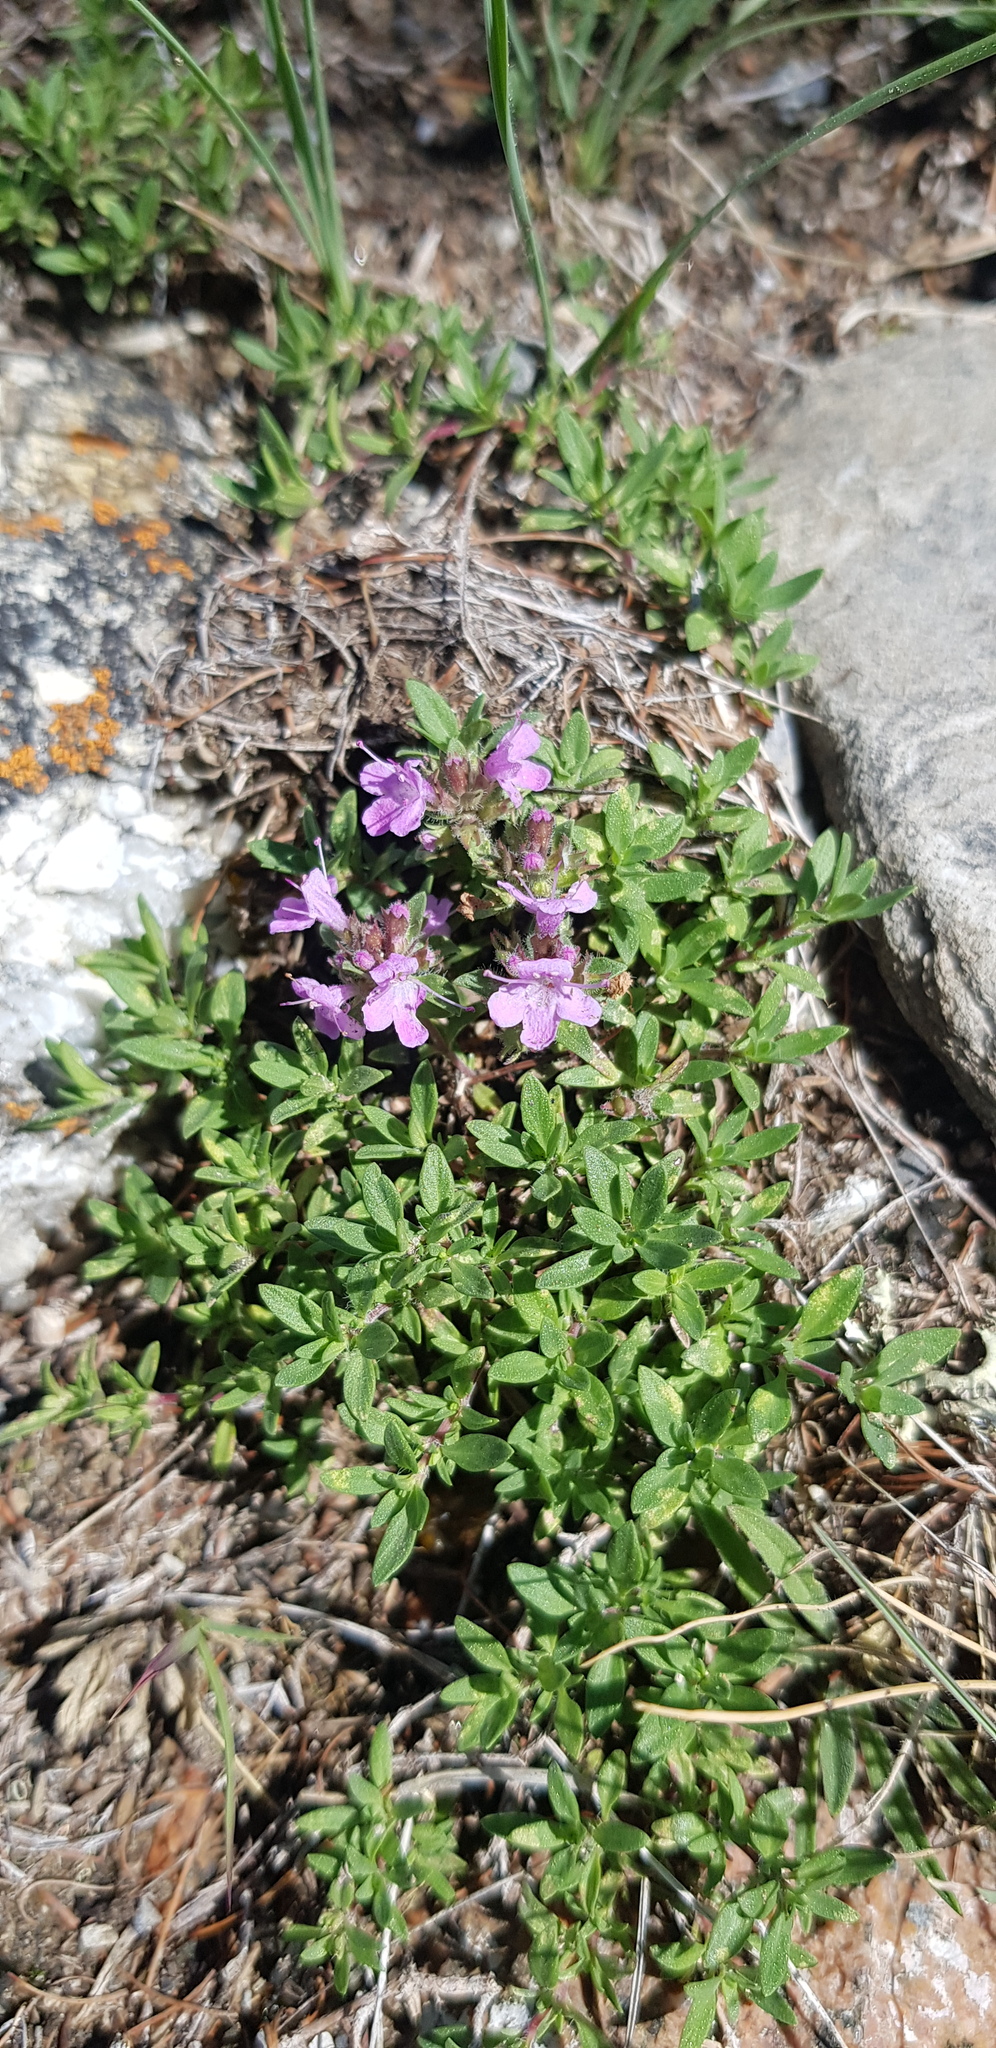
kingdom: Plantae
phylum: Tracheophyta
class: Magnoliopsida
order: Lamiales
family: Lamiaceae
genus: Thymus
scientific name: Thymus baicalensis
